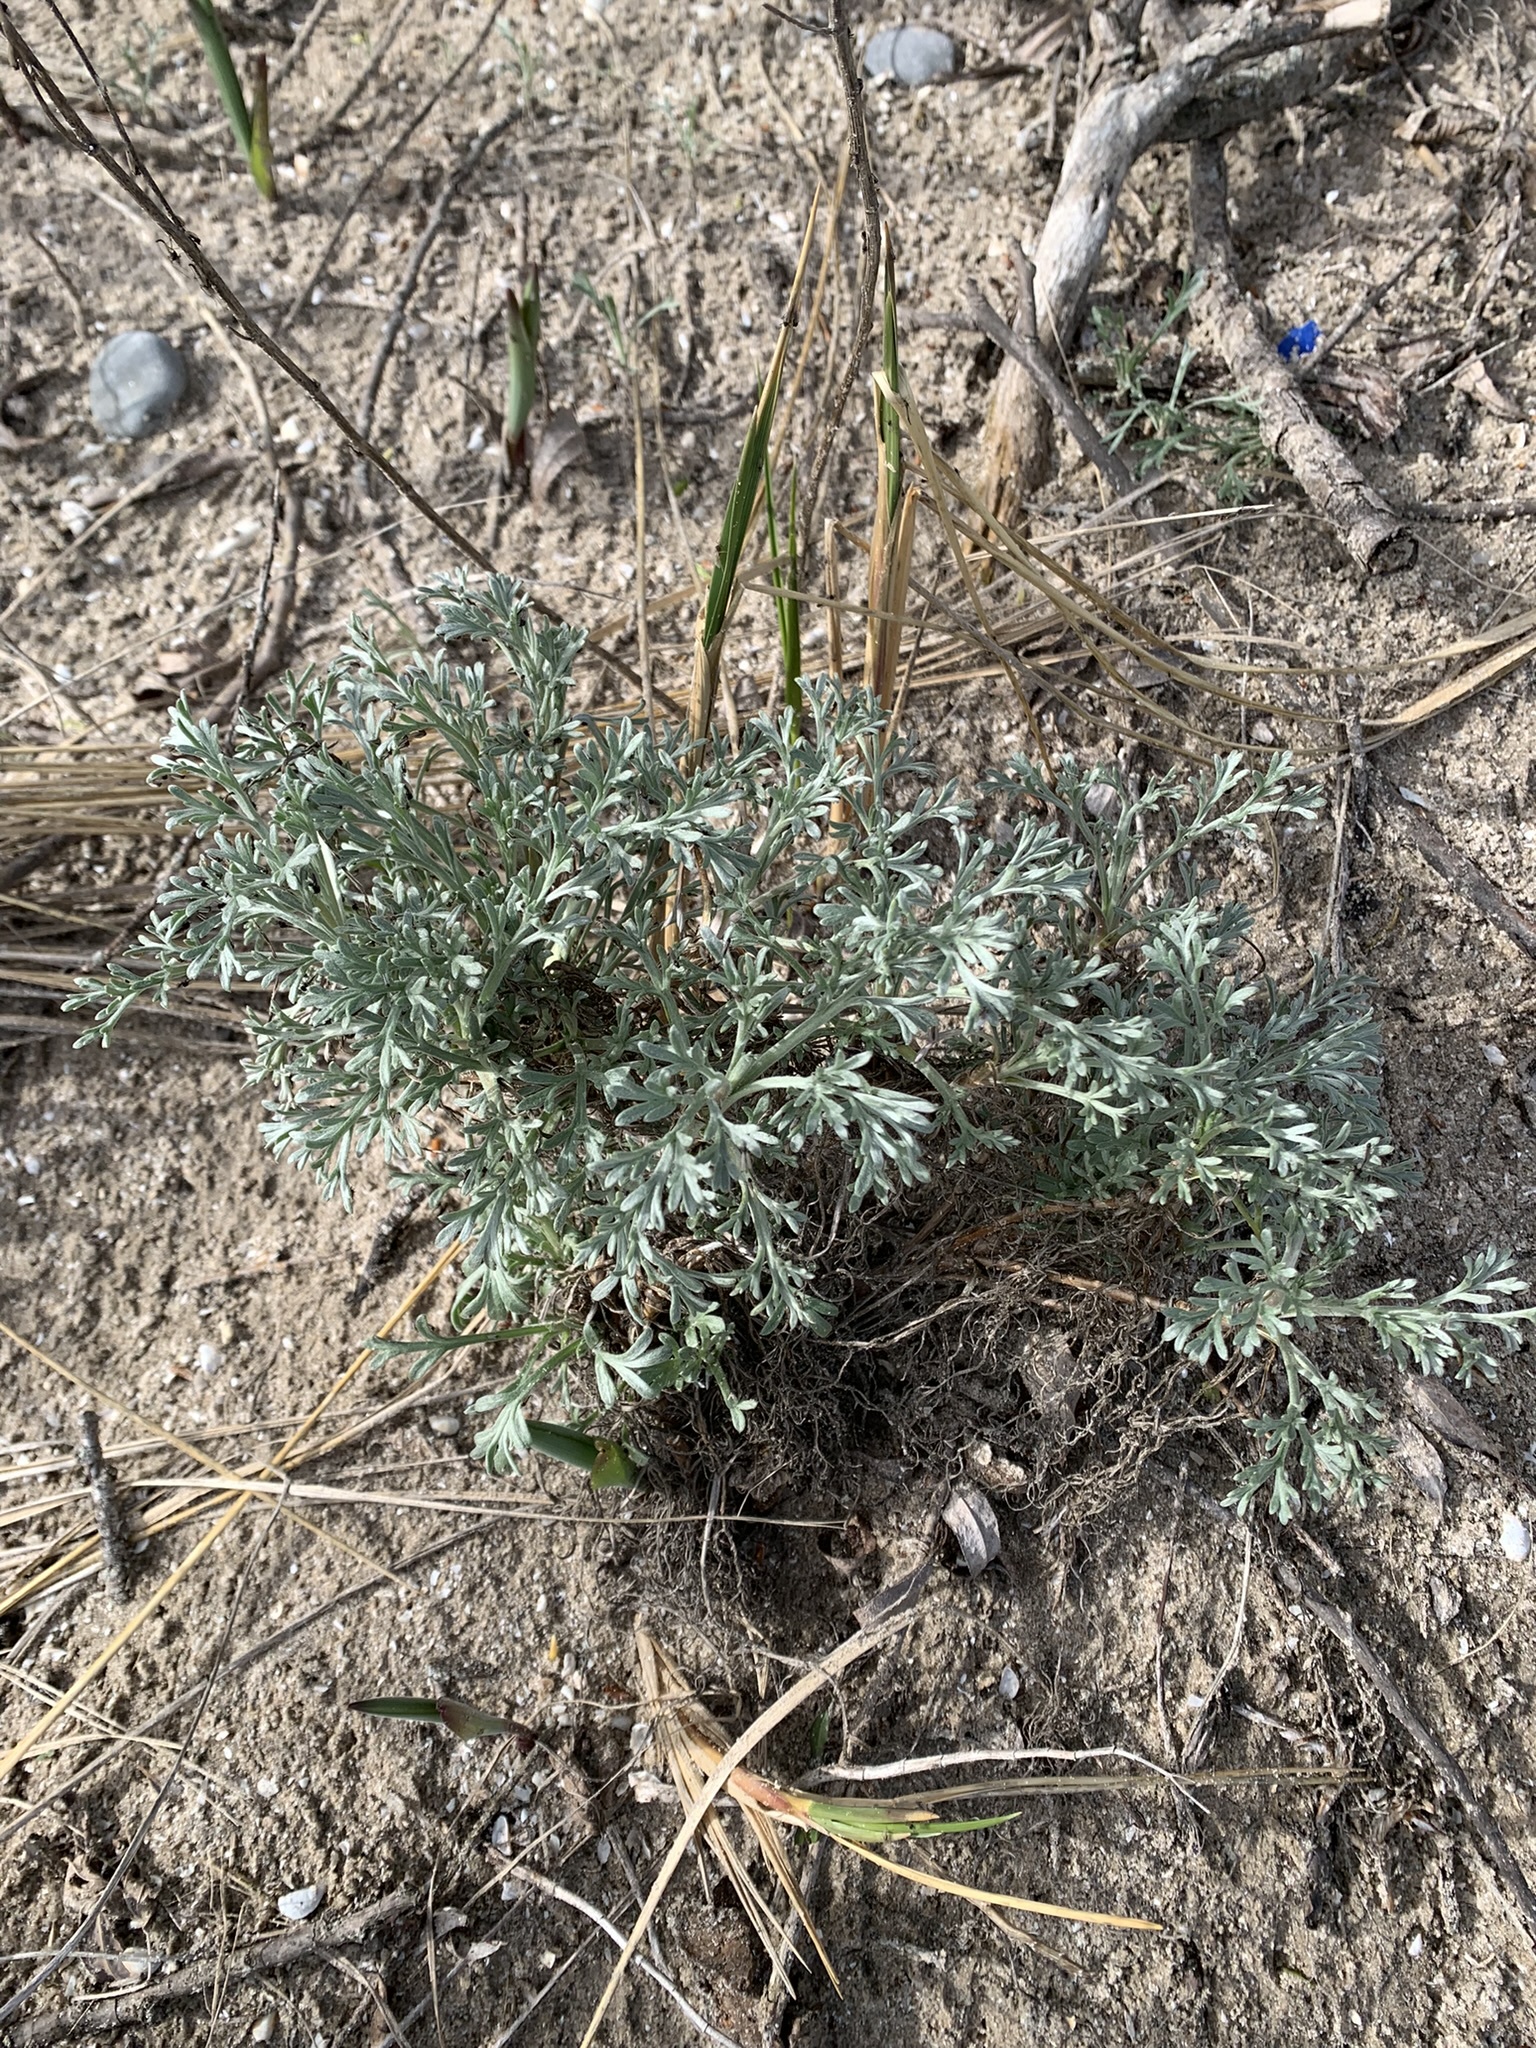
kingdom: Plantae
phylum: Tracheophyta
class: Magnoliopsida
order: Asterales
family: Asteraceae
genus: Artemisia
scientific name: Artemisia campestris
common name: Field wormwood
